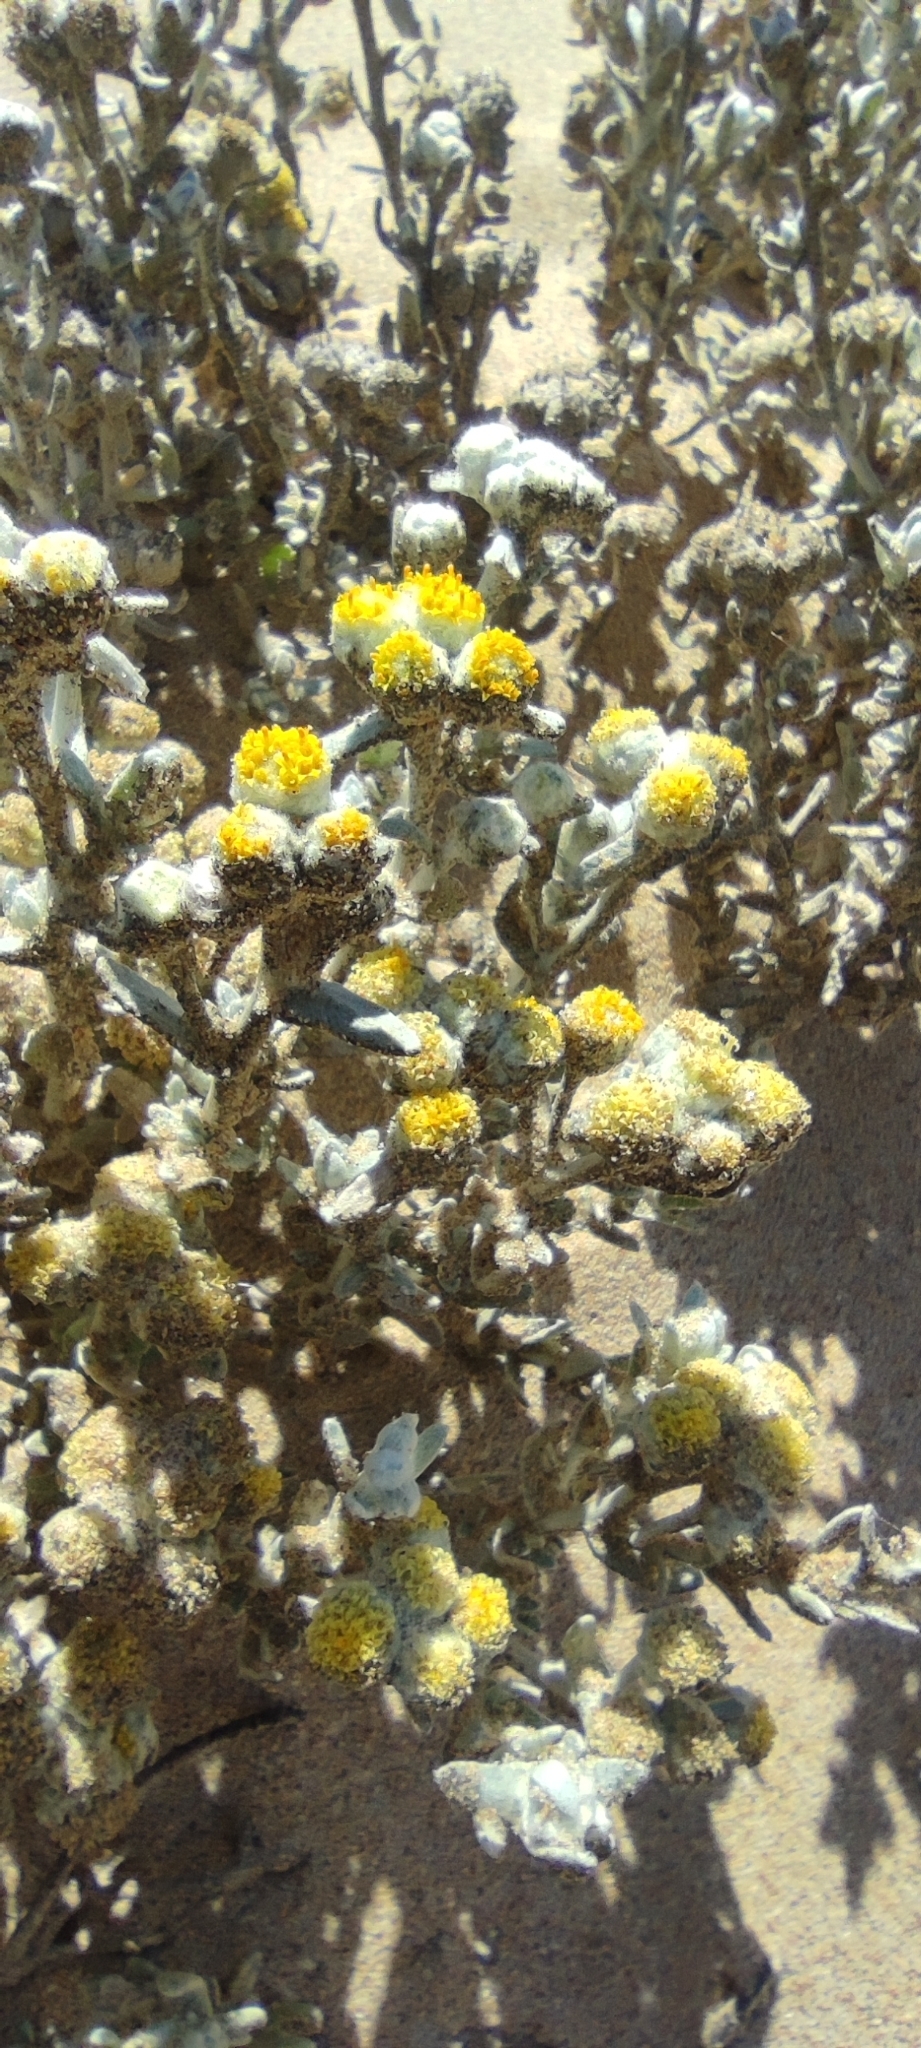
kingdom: Plantae
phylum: Tracheophyta
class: Magnoliopsida
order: Asterales
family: Asteraceae
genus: Achillea
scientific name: Achillea maritima
